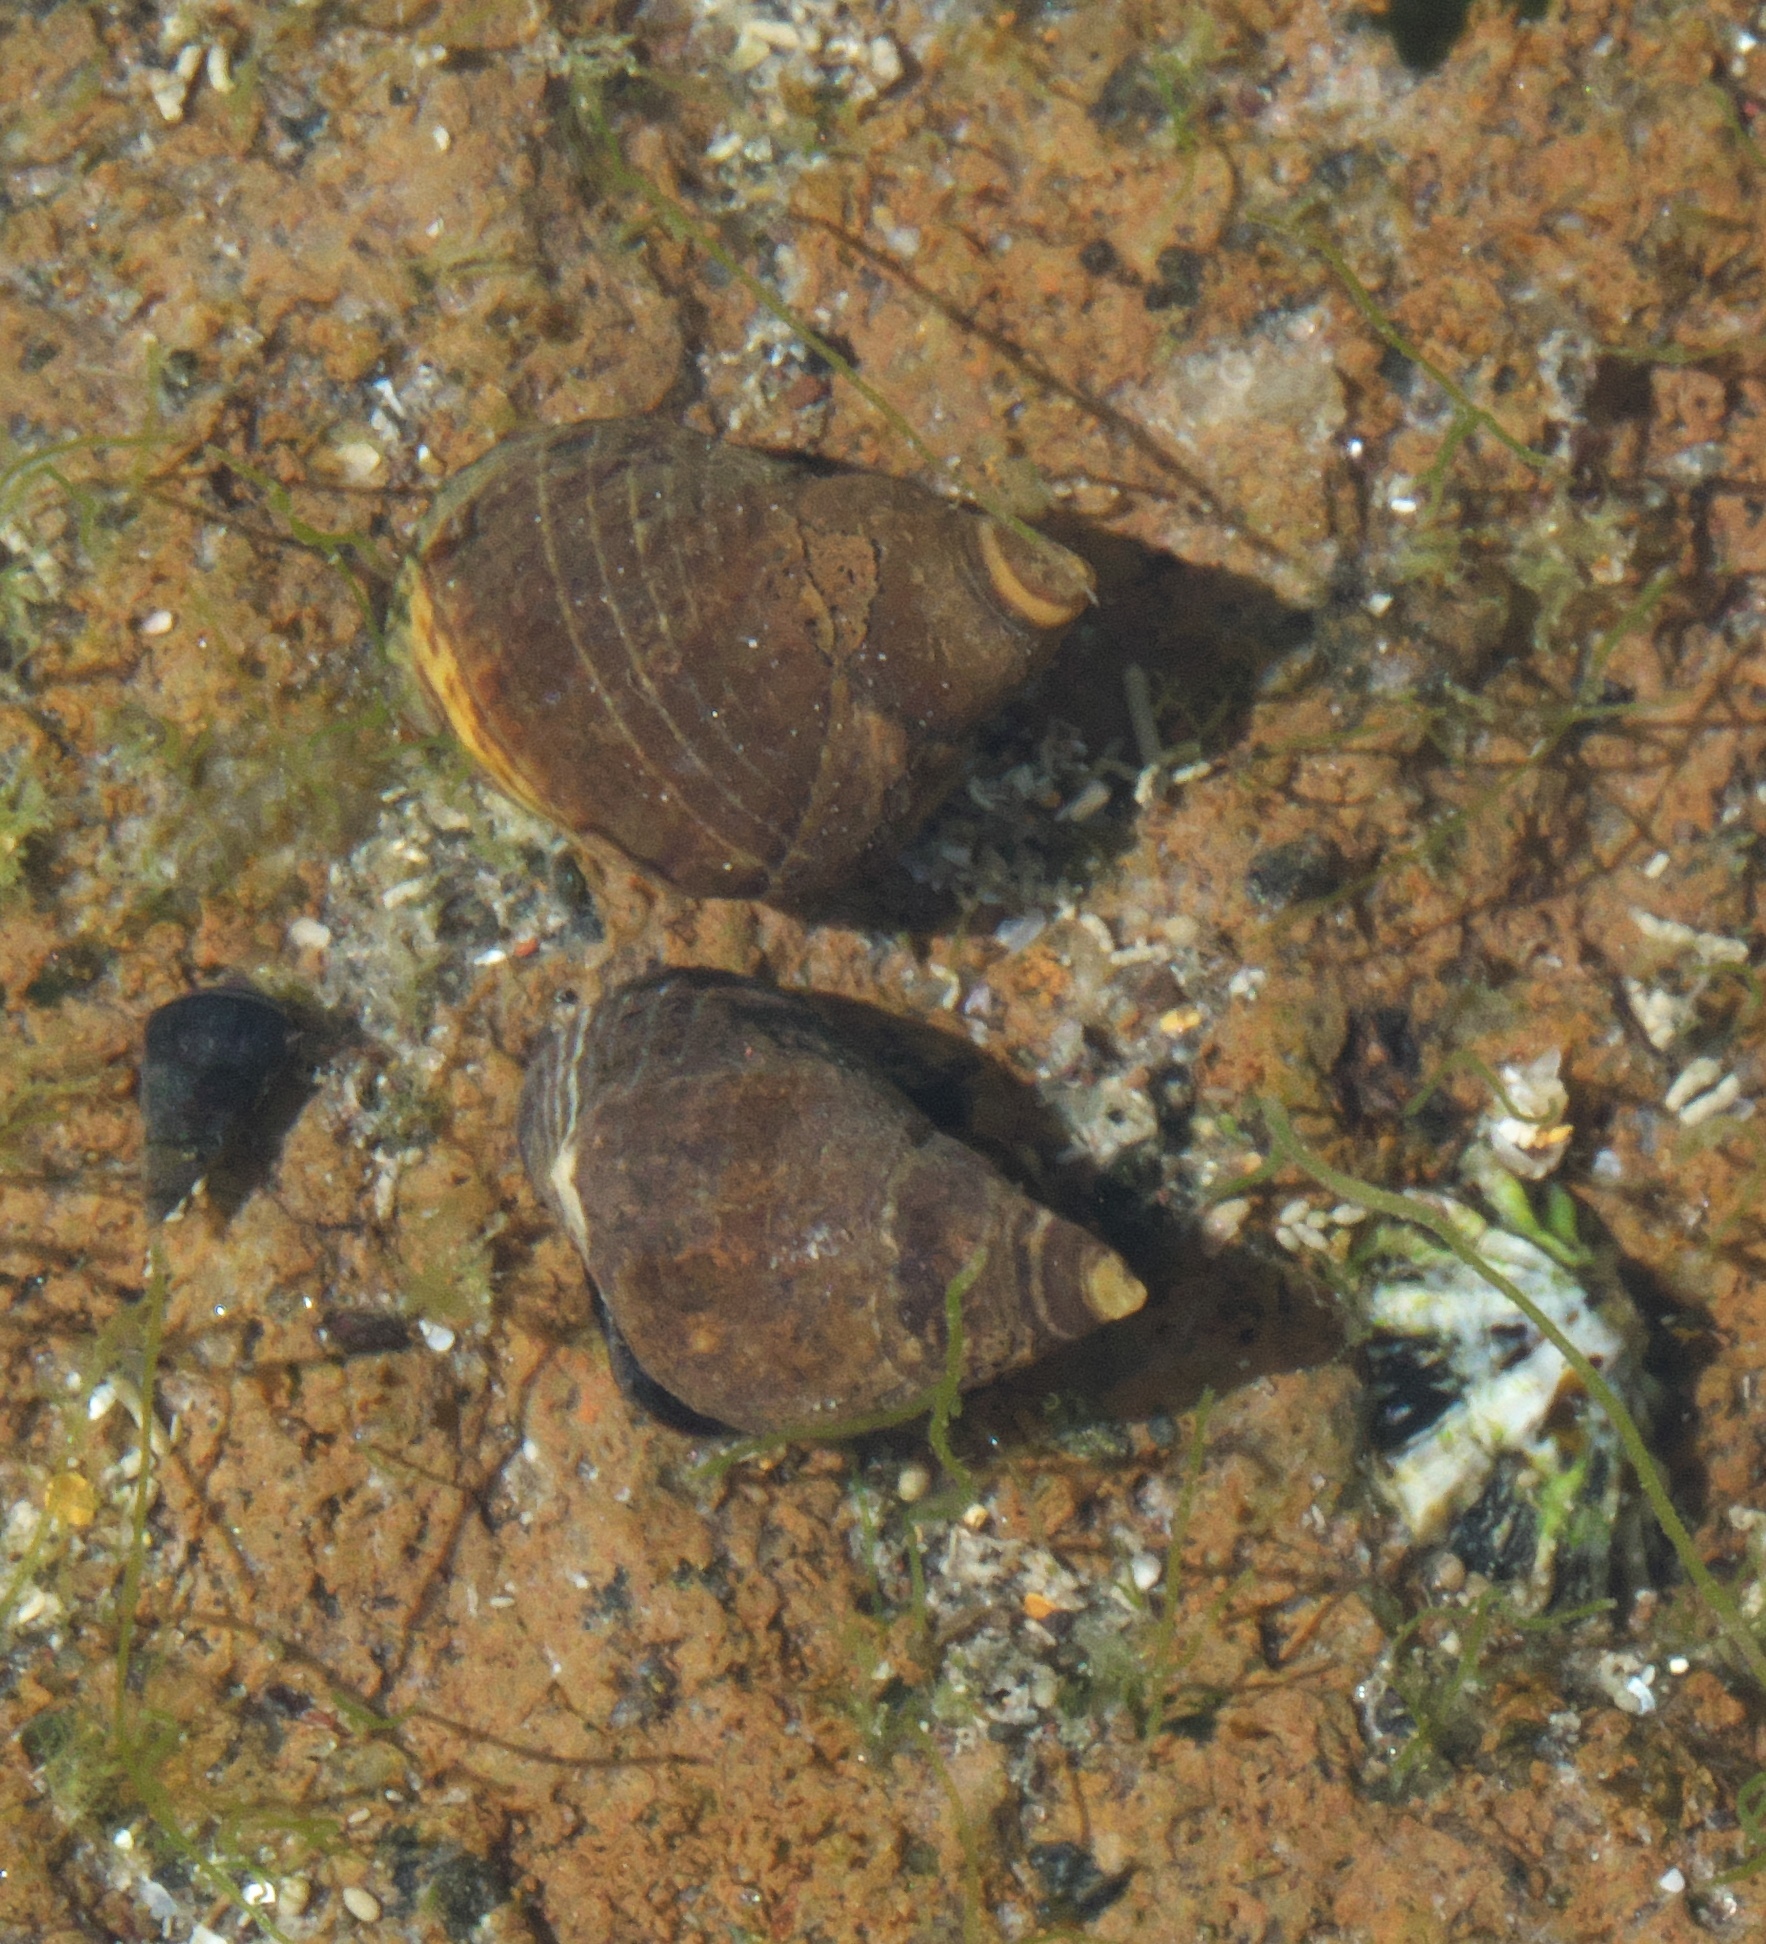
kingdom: Animalia
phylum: Mollusca
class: Gastropoda
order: Littorinimorpha
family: Littorinidae
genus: Austrolittorina
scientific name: Austrolittorina cincta
